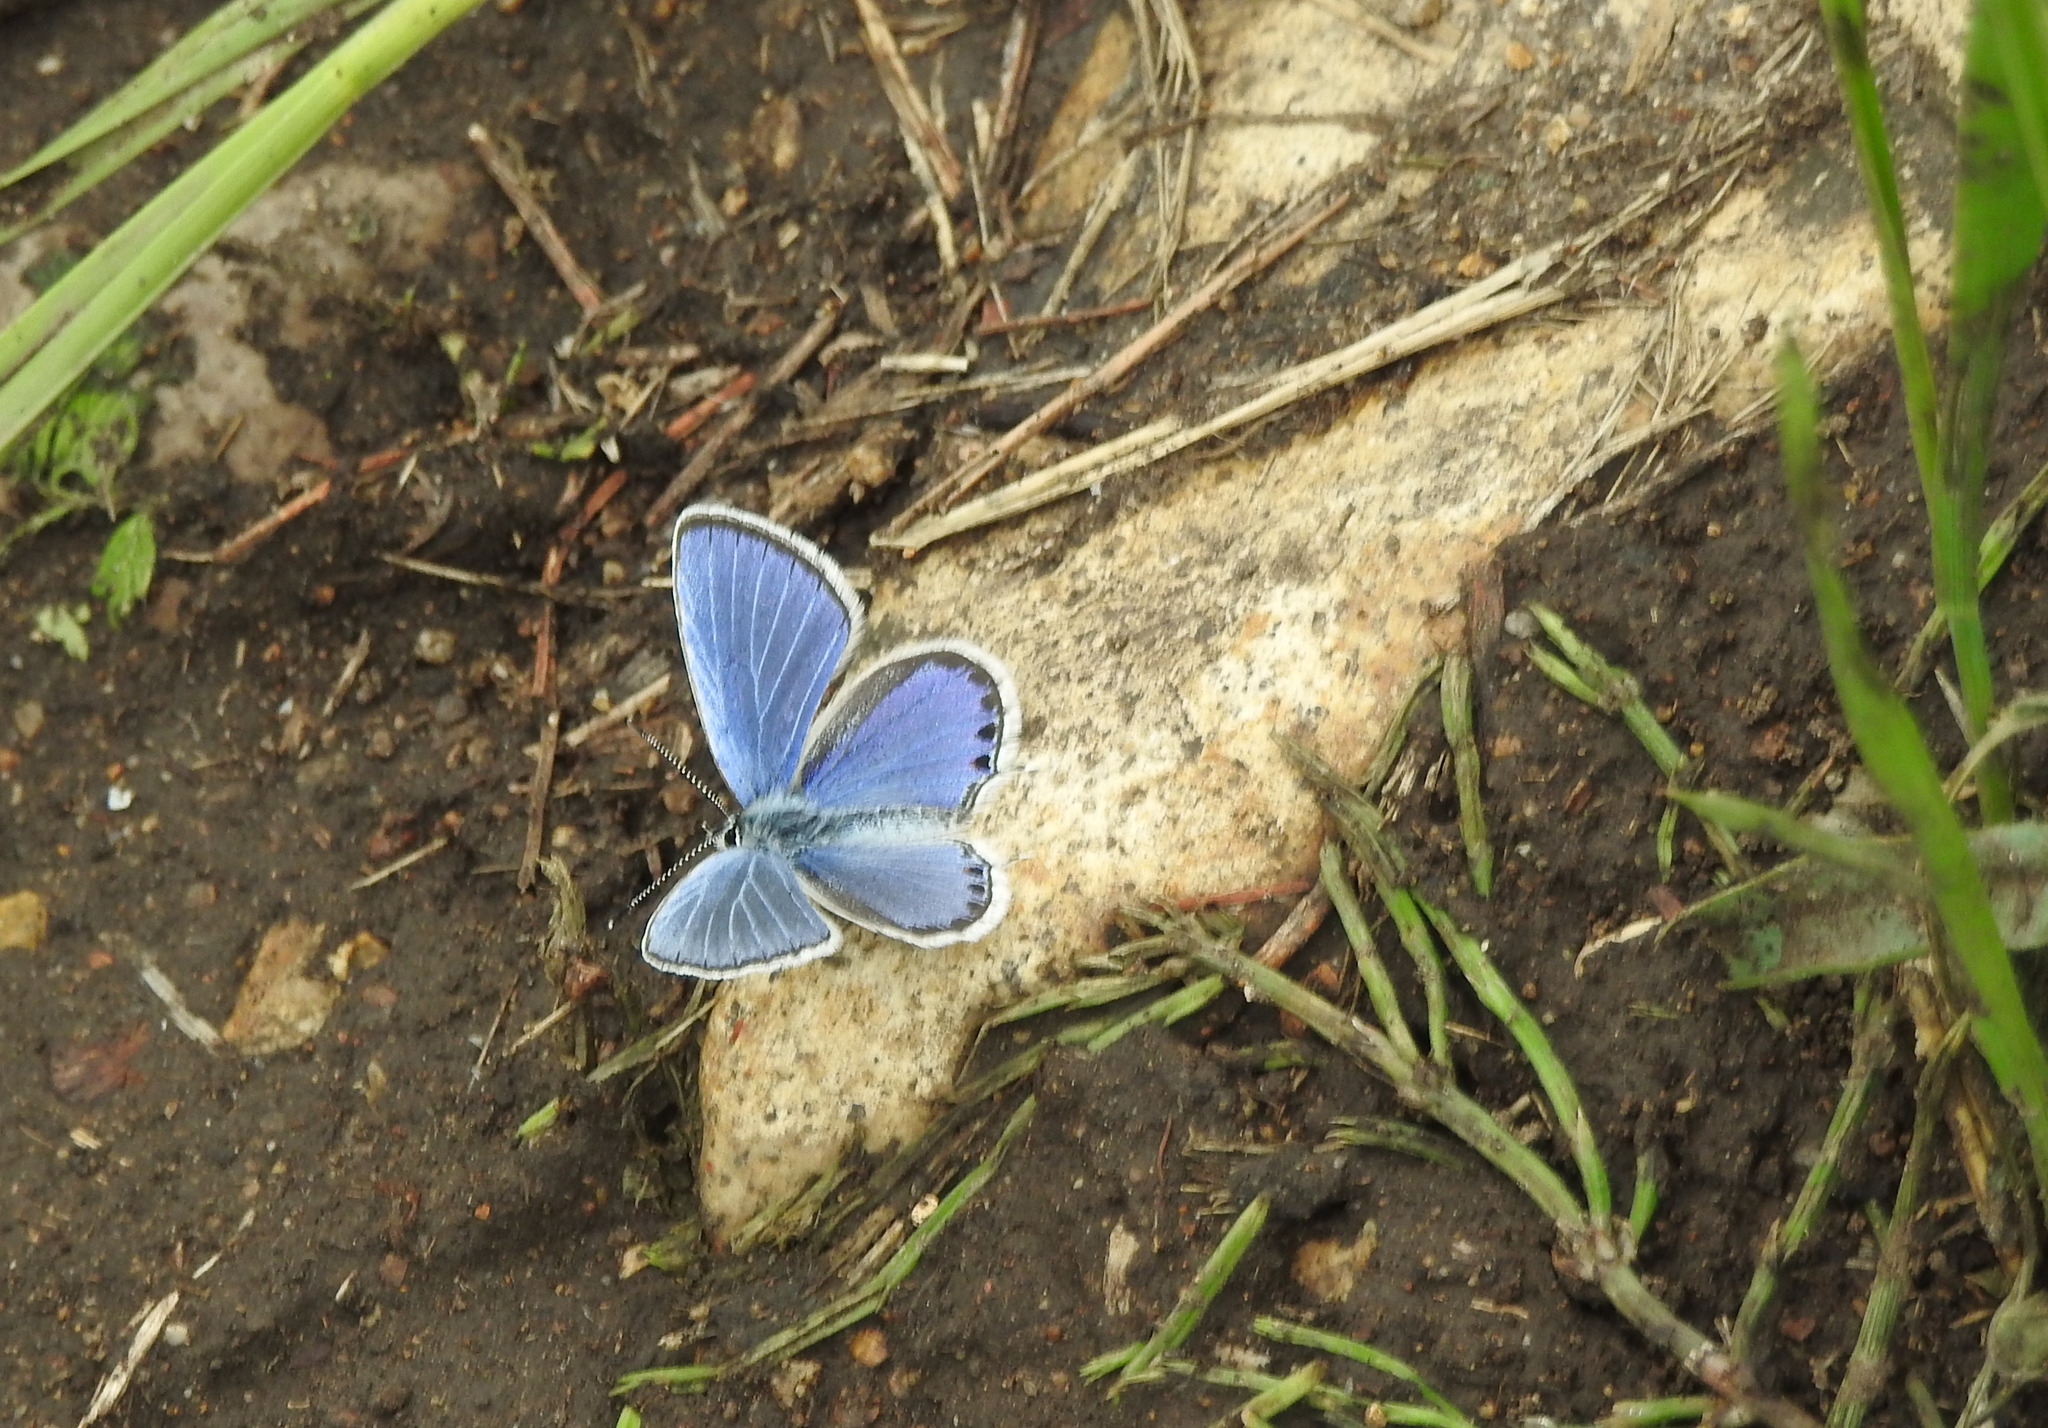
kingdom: Animalia
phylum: Arthropoda
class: Insecta
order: Lepidoptera
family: Lycaenidae
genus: Elkalyce
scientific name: Elkalyce argiades
